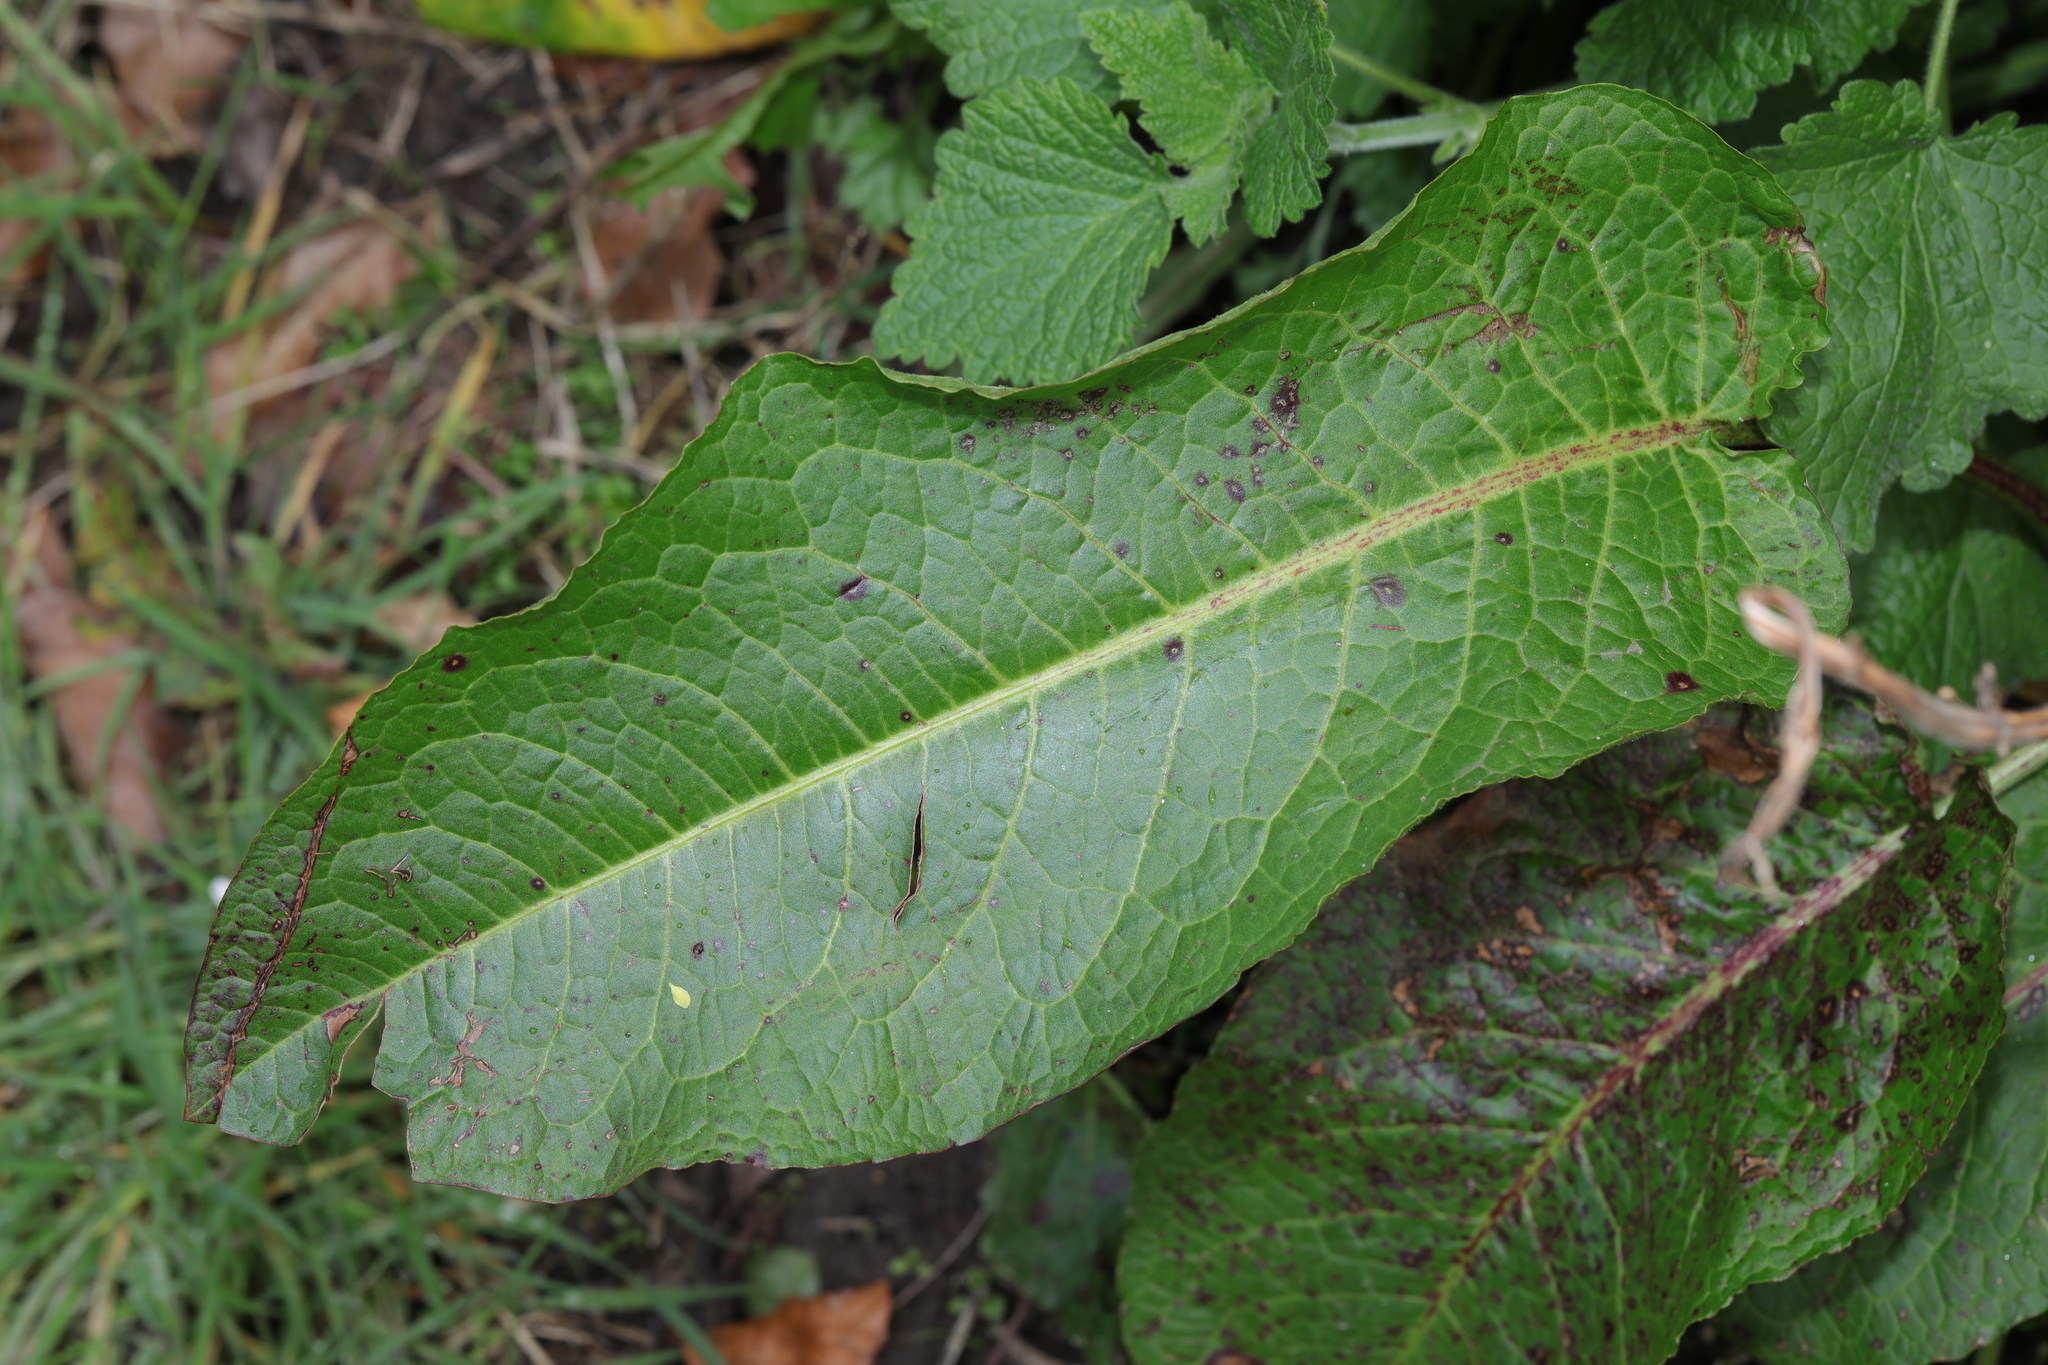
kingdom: Plantae
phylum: Tracheophyta
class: Magnoliopsida
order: Caryophyllales
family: Polygonaceae
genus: Rumex
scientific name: Rumex obtusifolius
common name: Bitter dock
